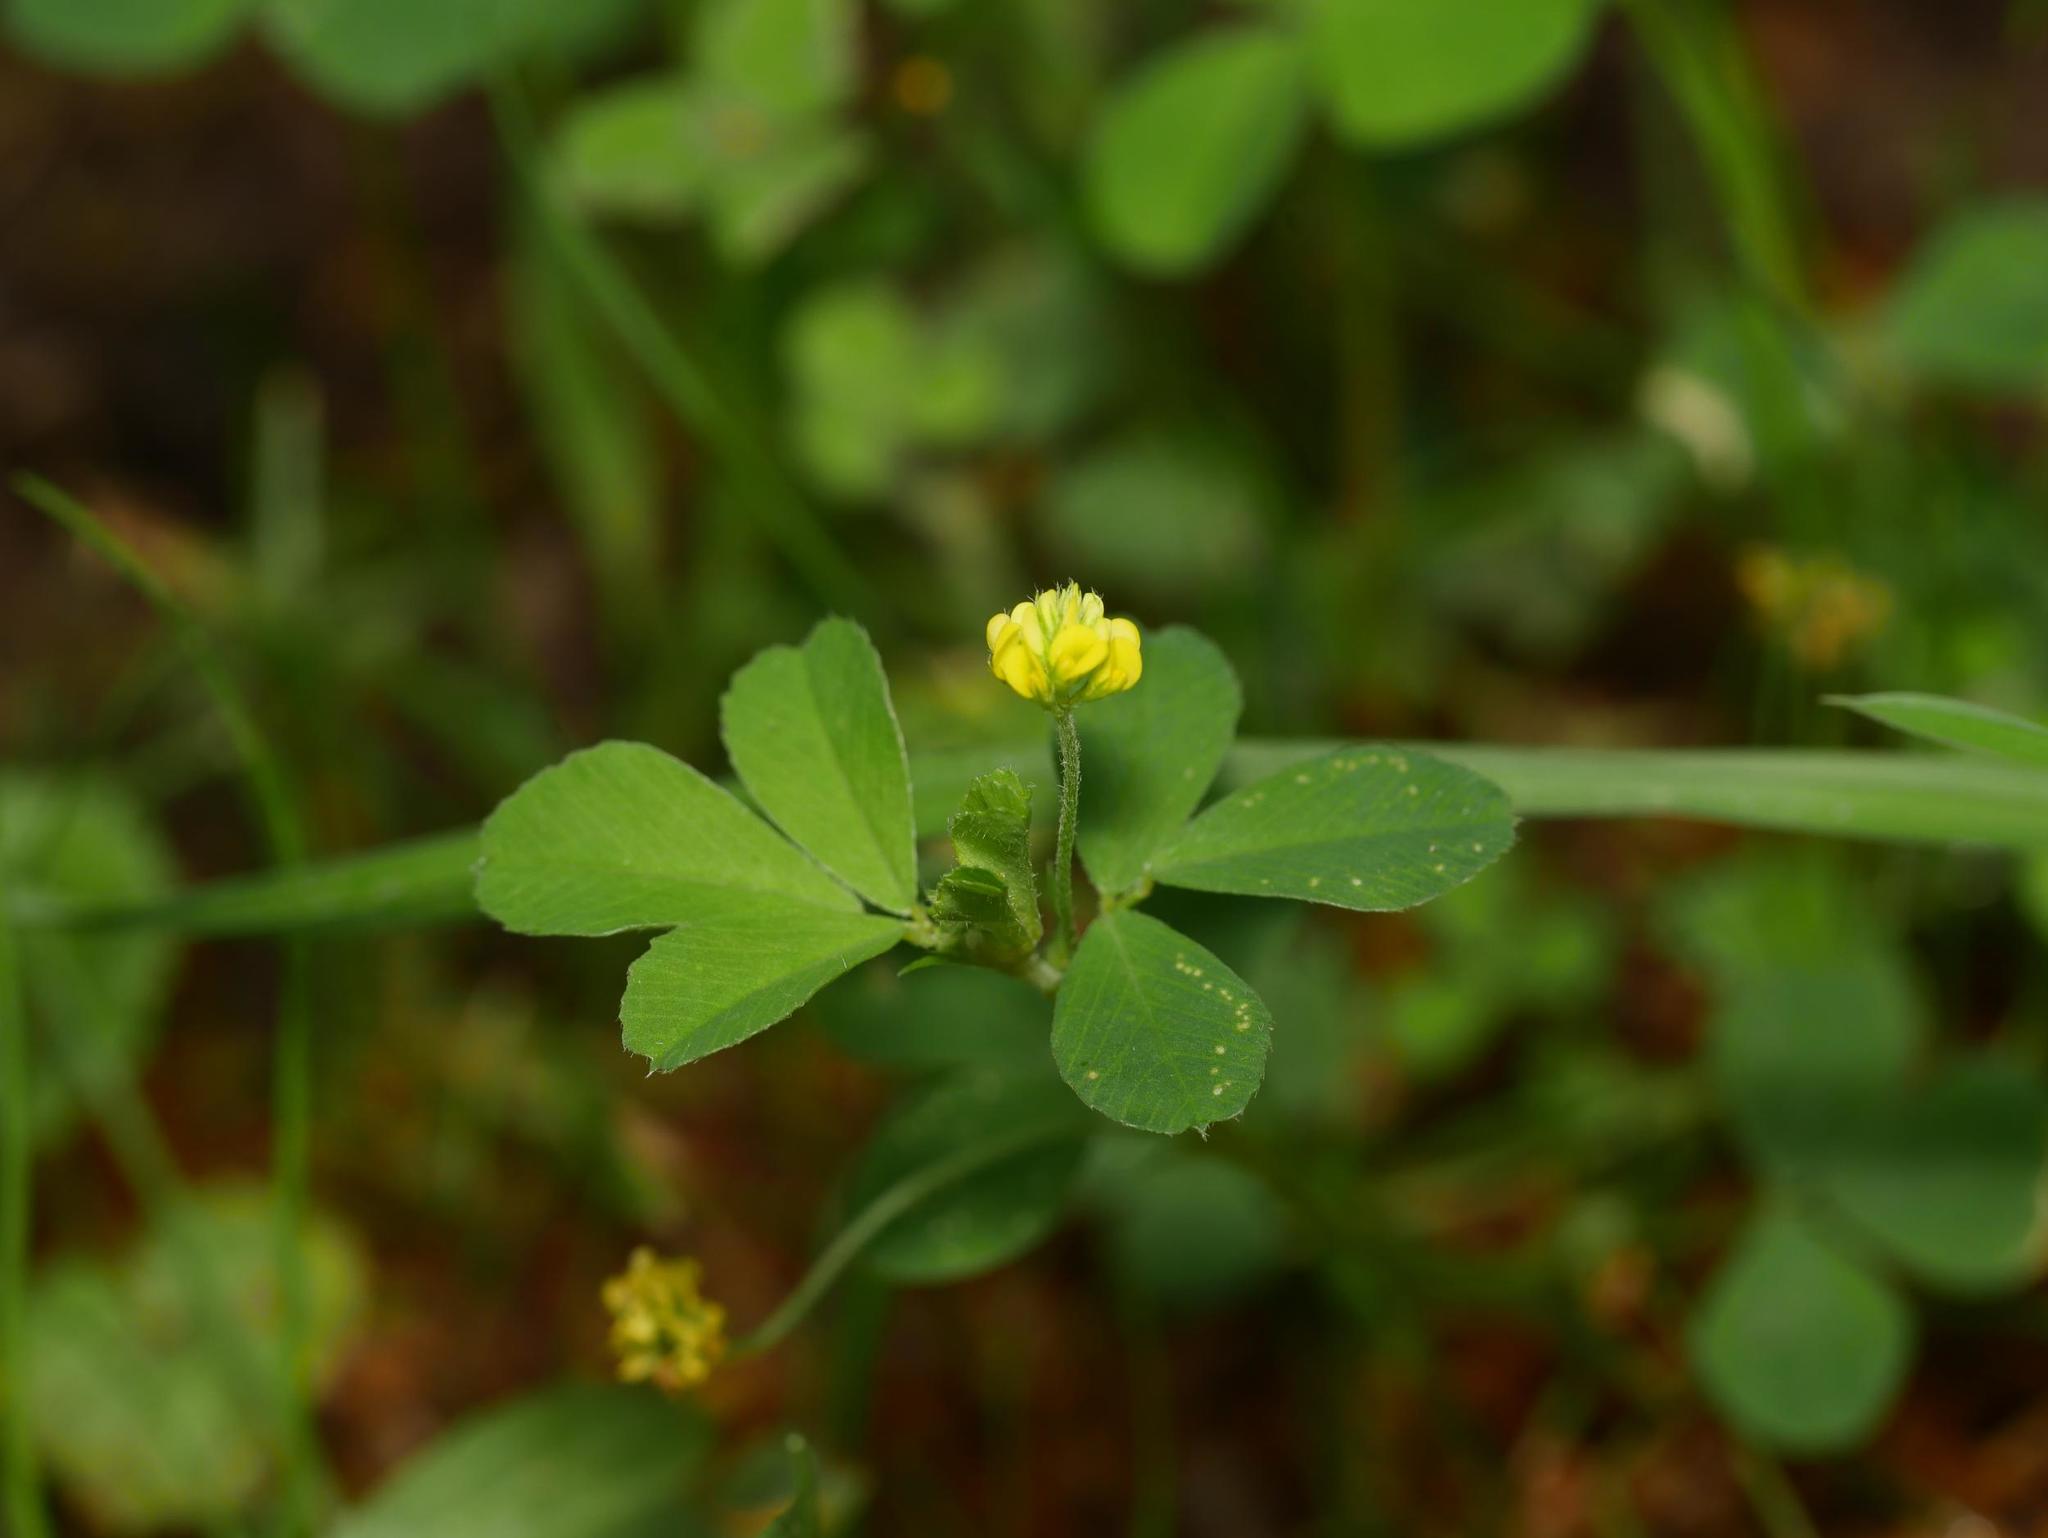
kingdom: Plantae
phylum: Tracheophyta
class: Magnoliopsida
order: Fabales
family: Fabaceae
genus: Medicago
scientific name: Medicago lupulina
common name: Black medick
